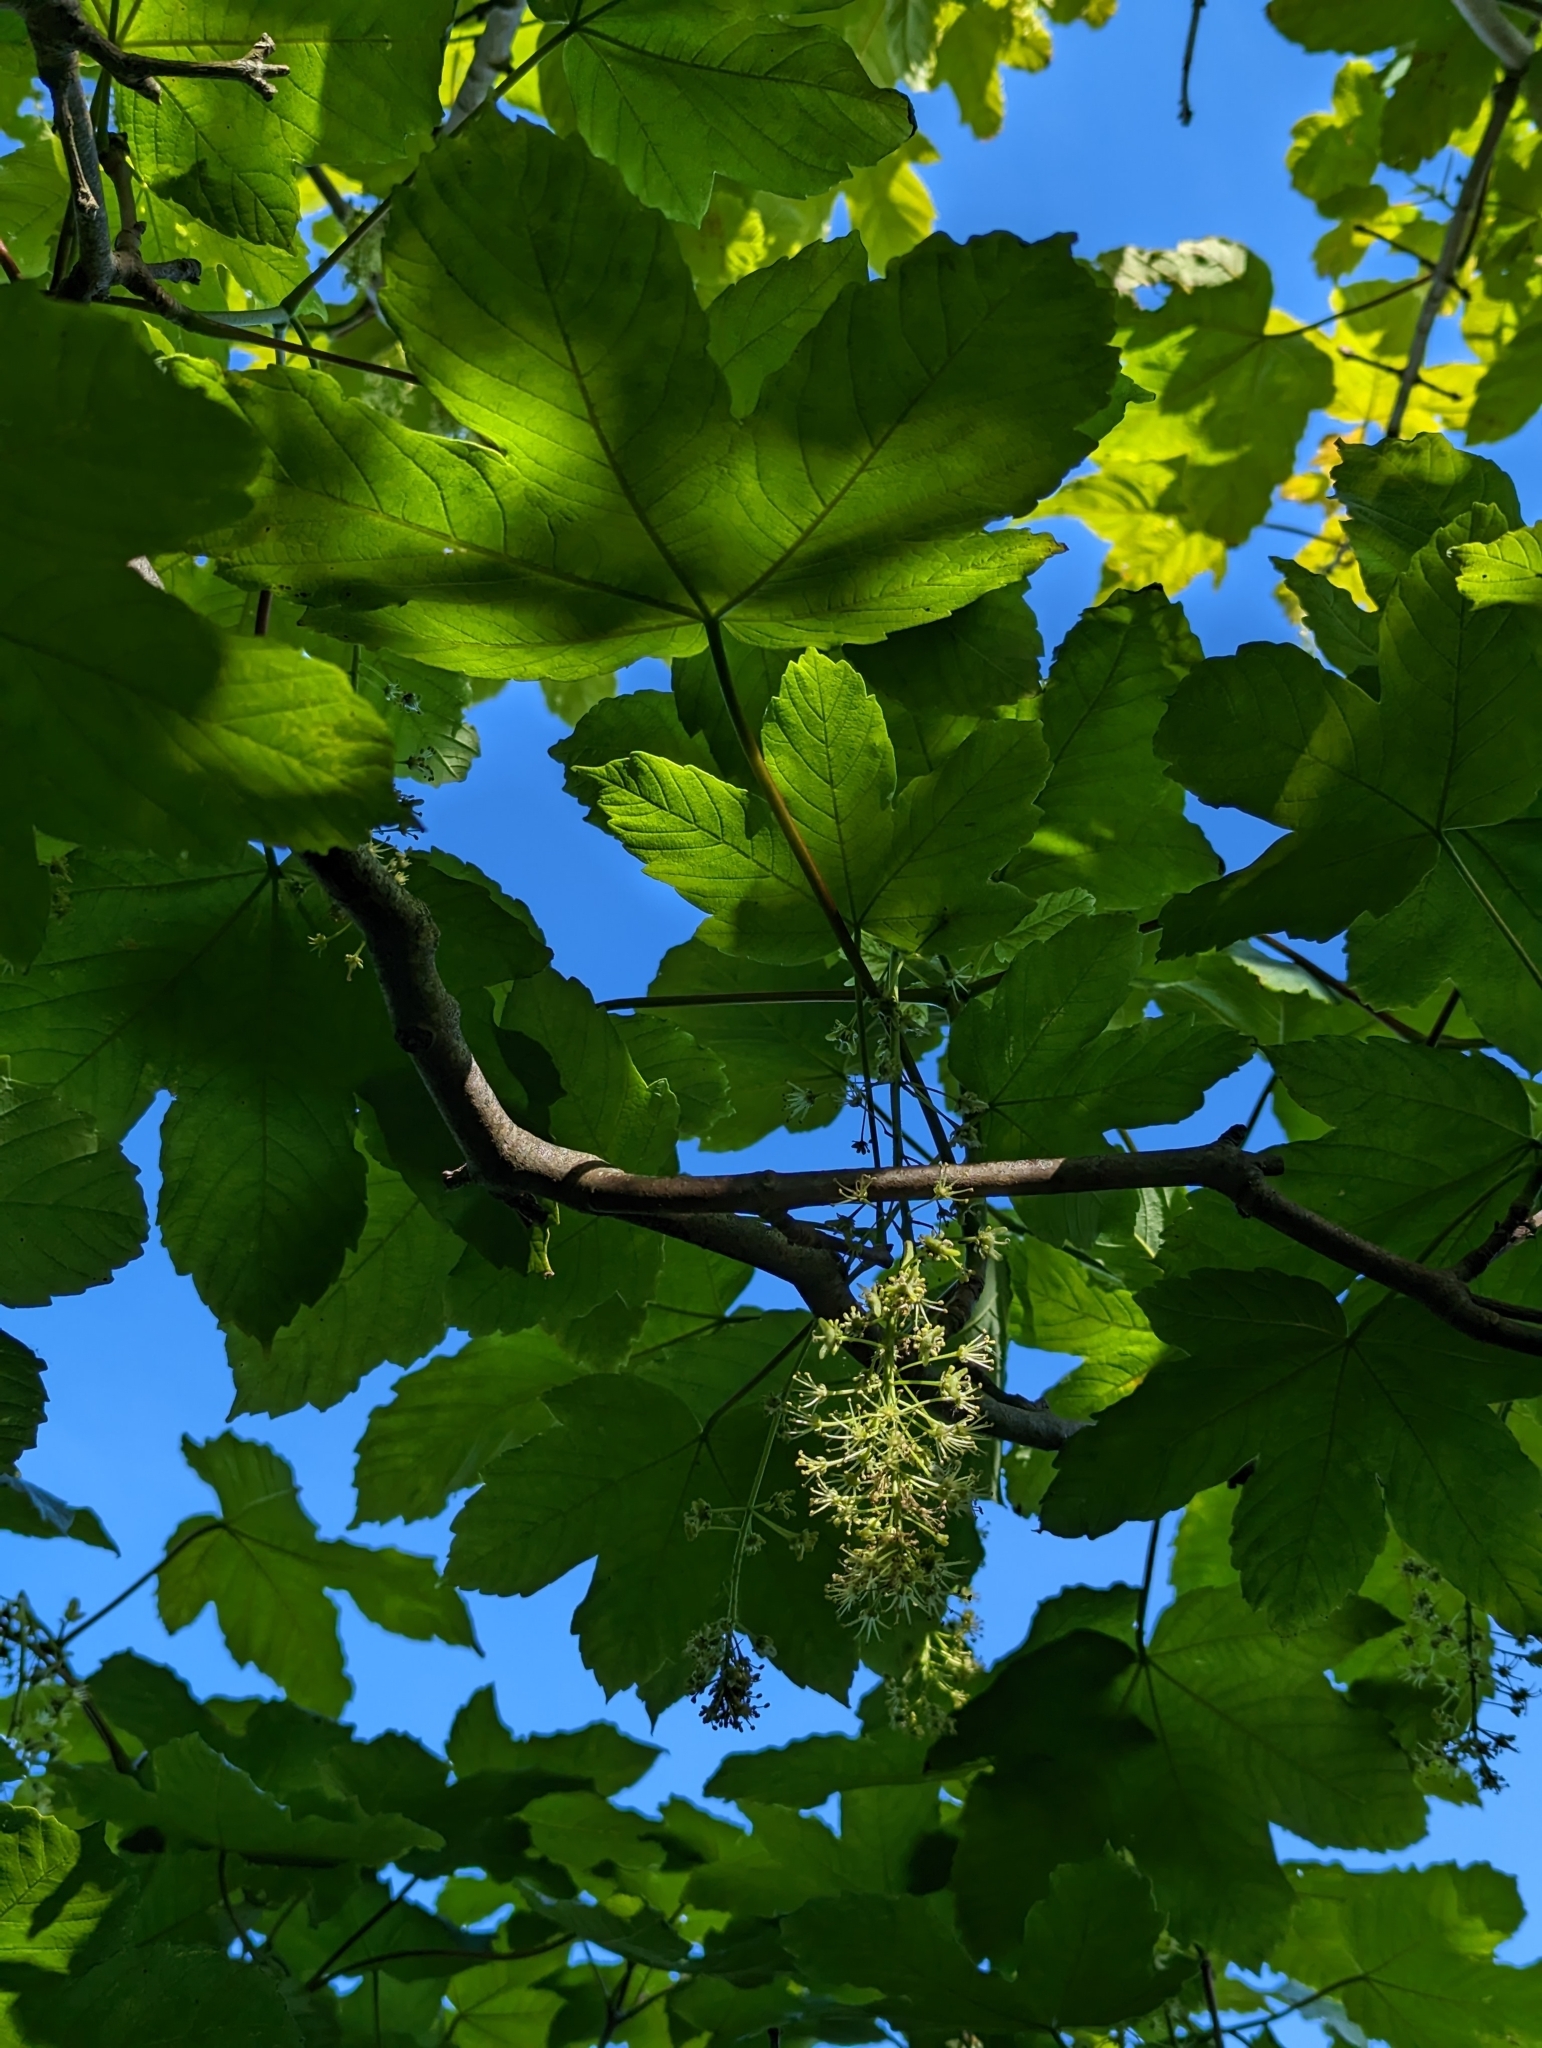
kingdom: Plantae
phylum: Tracheophyta
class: Magnoliopsida
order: Sapindales
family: Sapindaceae
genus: Acer
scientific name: Acer pseudoplatanus
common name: Sycamore
